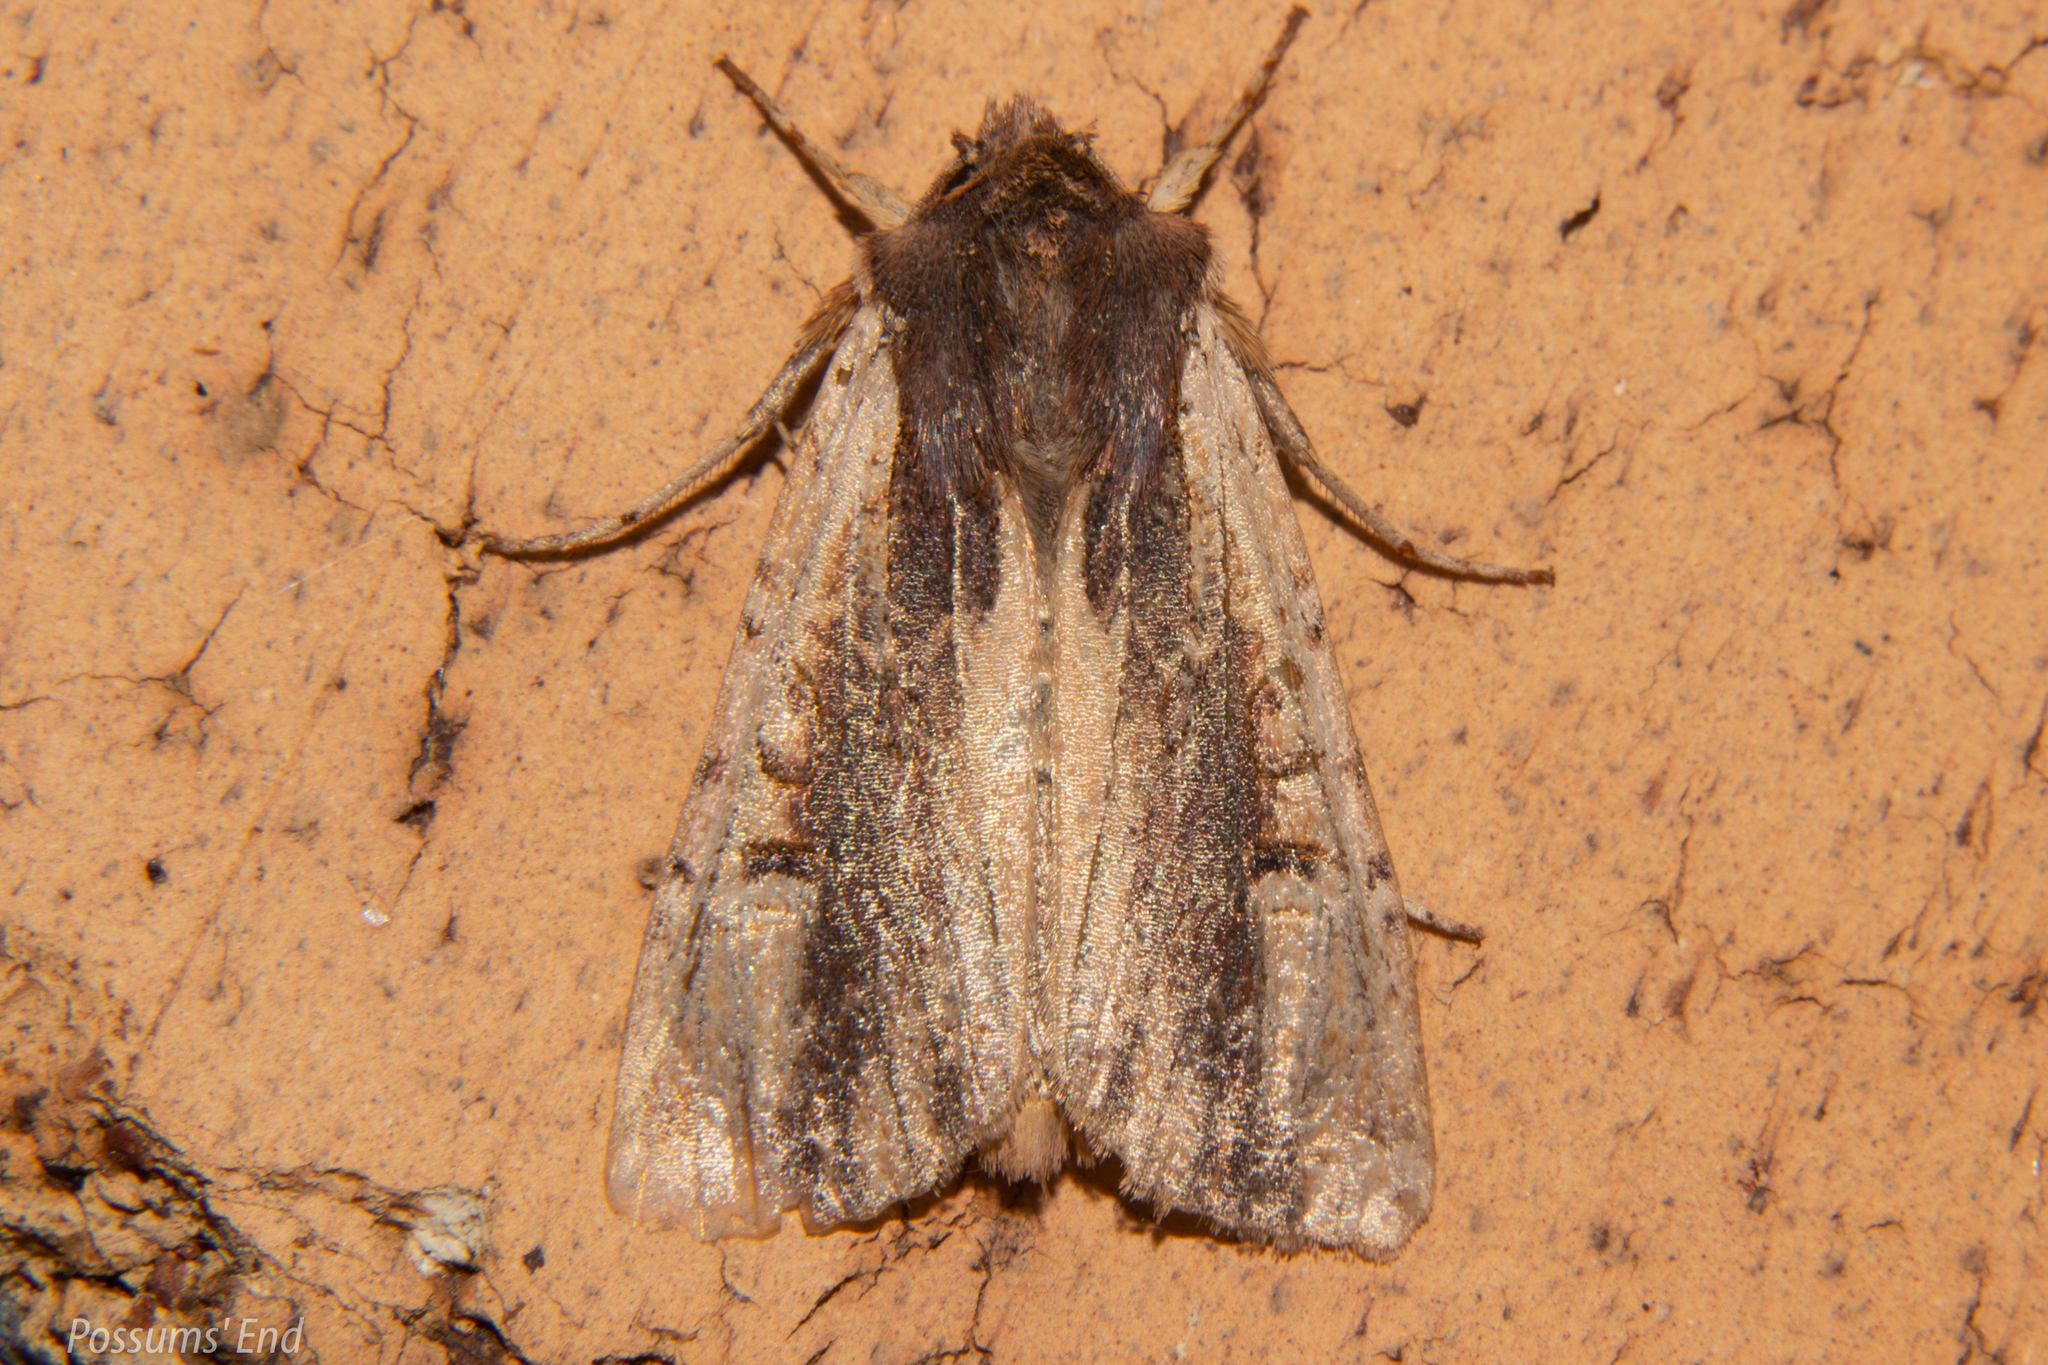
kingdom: Animalia
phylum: Arthropoda
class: Insecta
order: Lepidoptera
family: Noctuidae
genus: Ichneutica
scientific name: Ichneutica omoplaca
